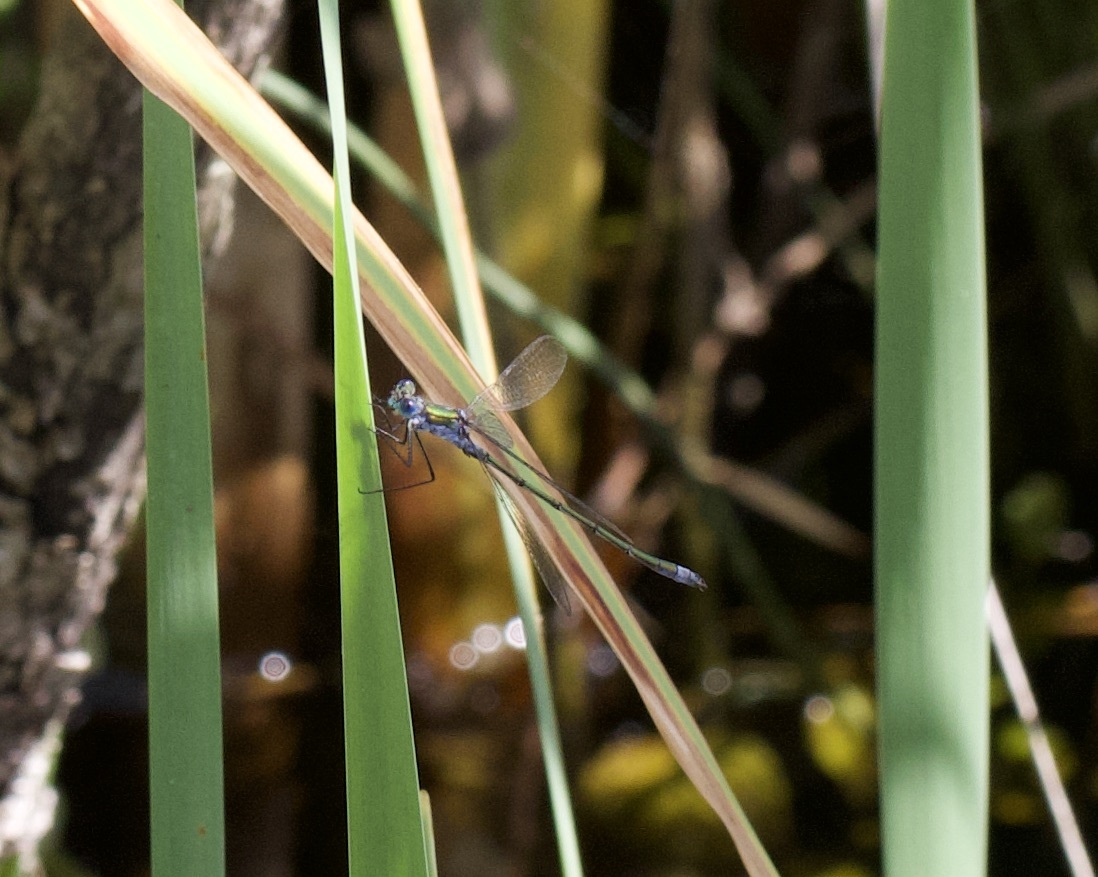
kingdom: Animalia
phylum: Arthropoda
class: Insecta
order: Odonata
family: Lestidae
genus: Lestes
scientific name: Lestes sponsa
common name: Common spreadwing
